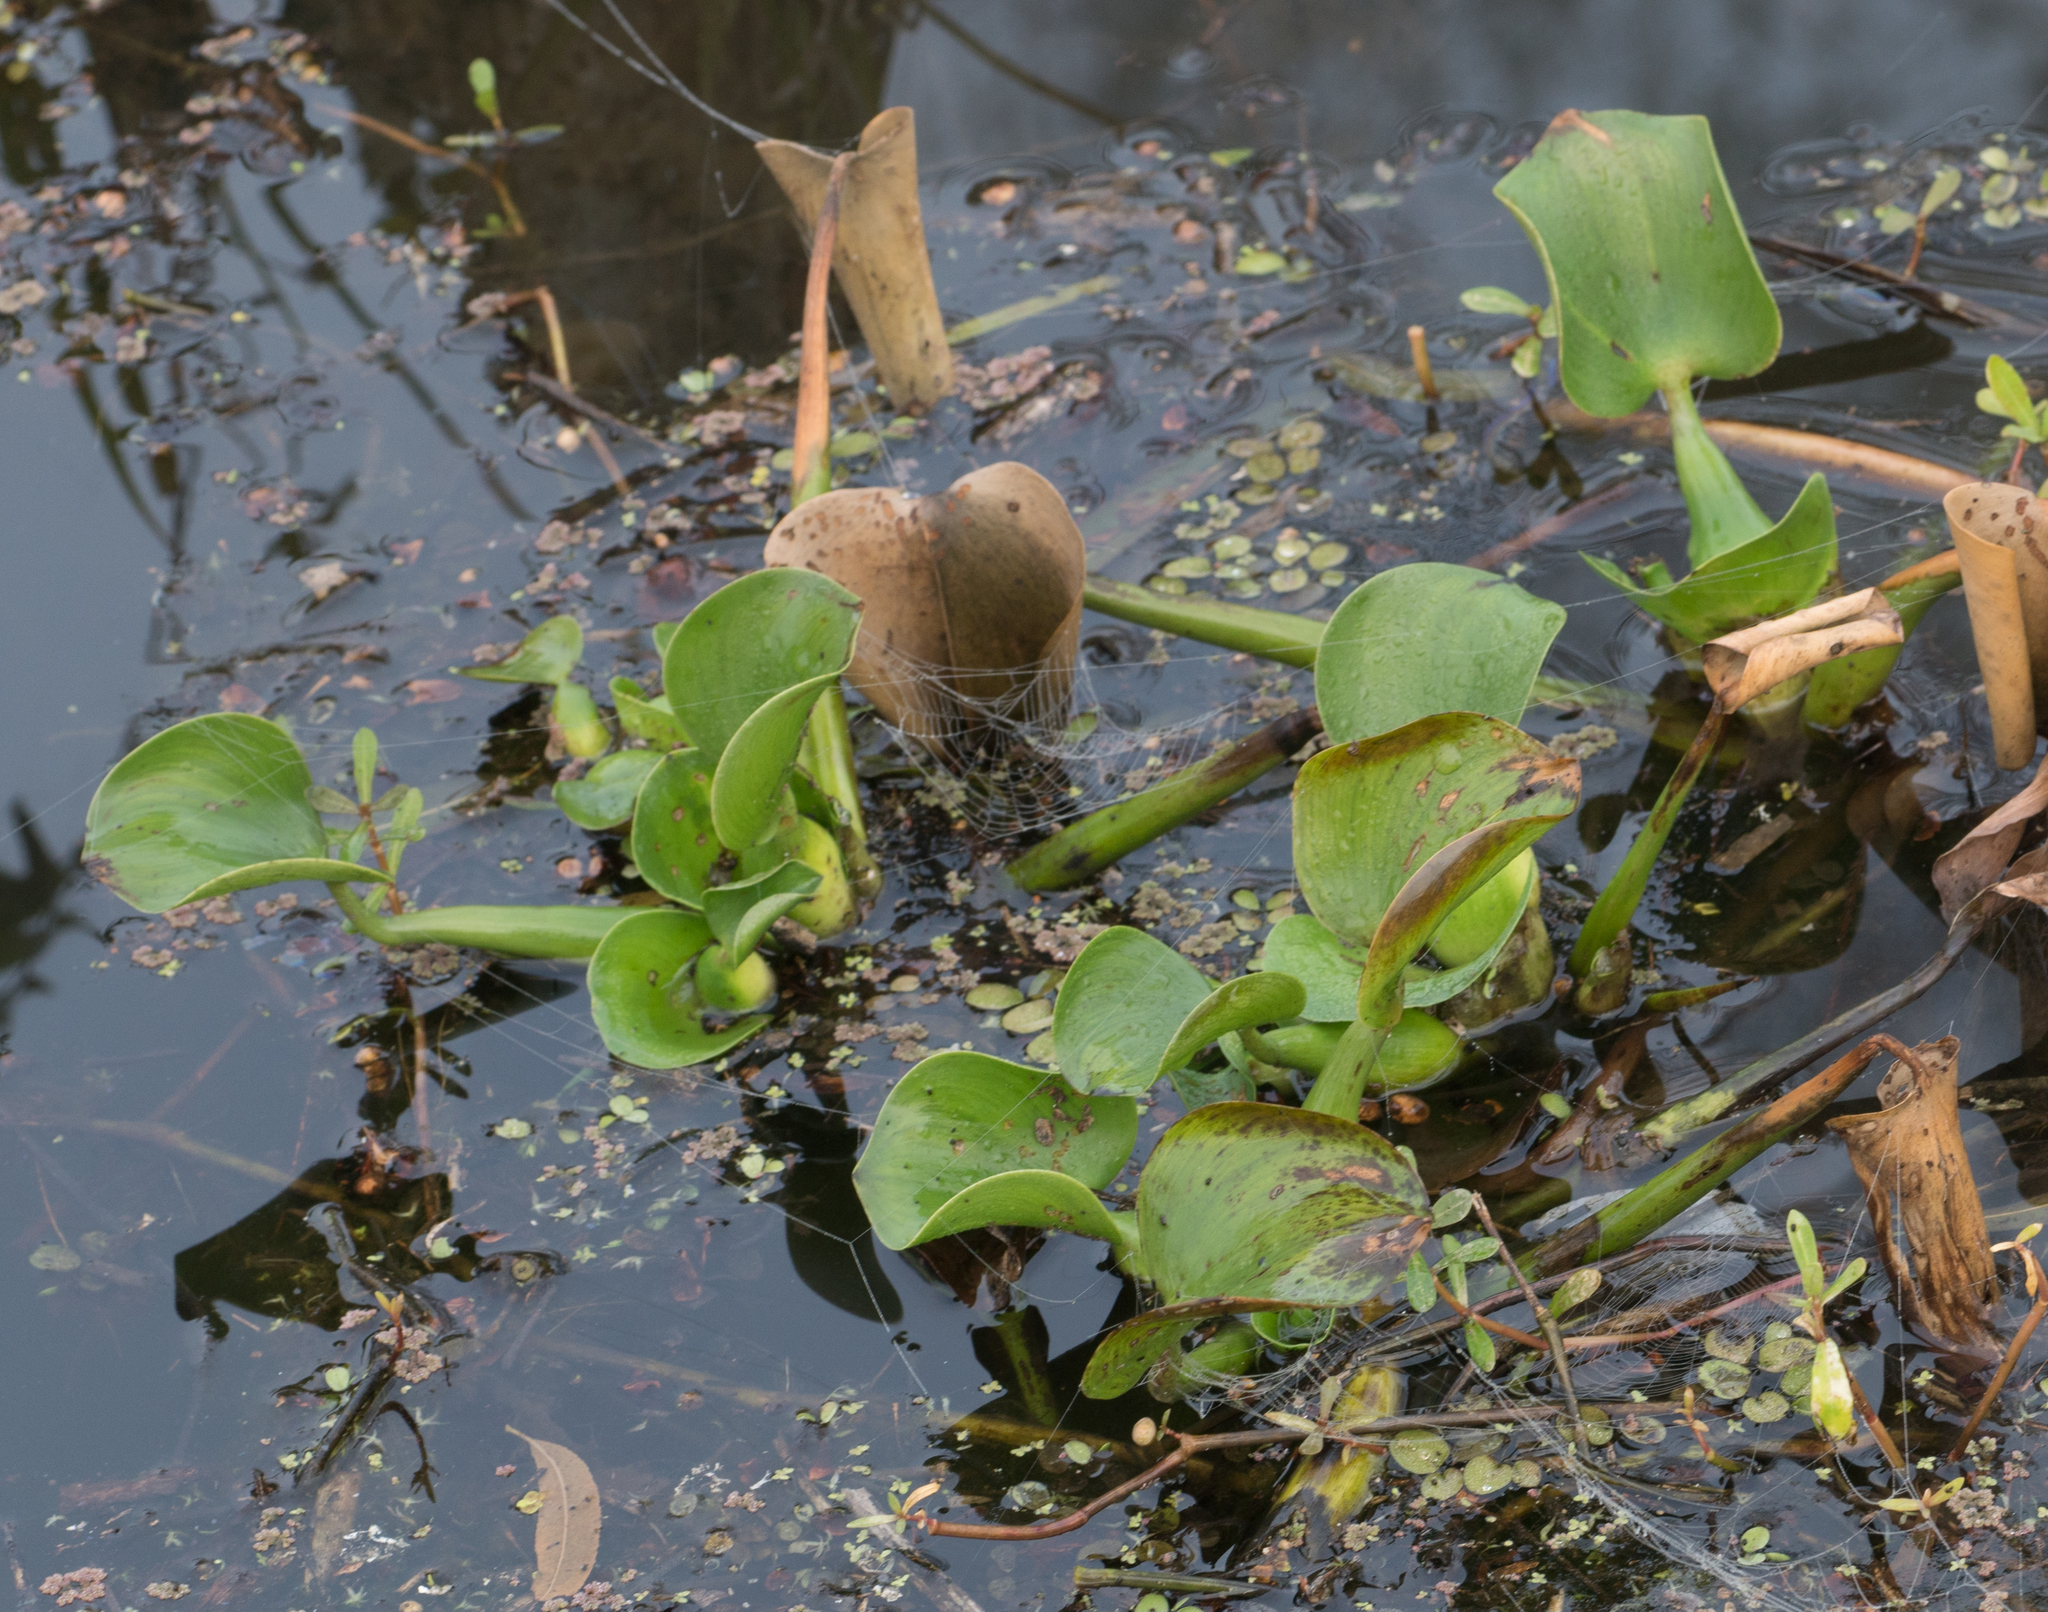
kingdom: Plantae
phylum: Tracheophyta
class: Liliopsida
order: Commelinales
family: Pontederiaceae
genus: Pontederia
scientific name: Pontederia crassipes
